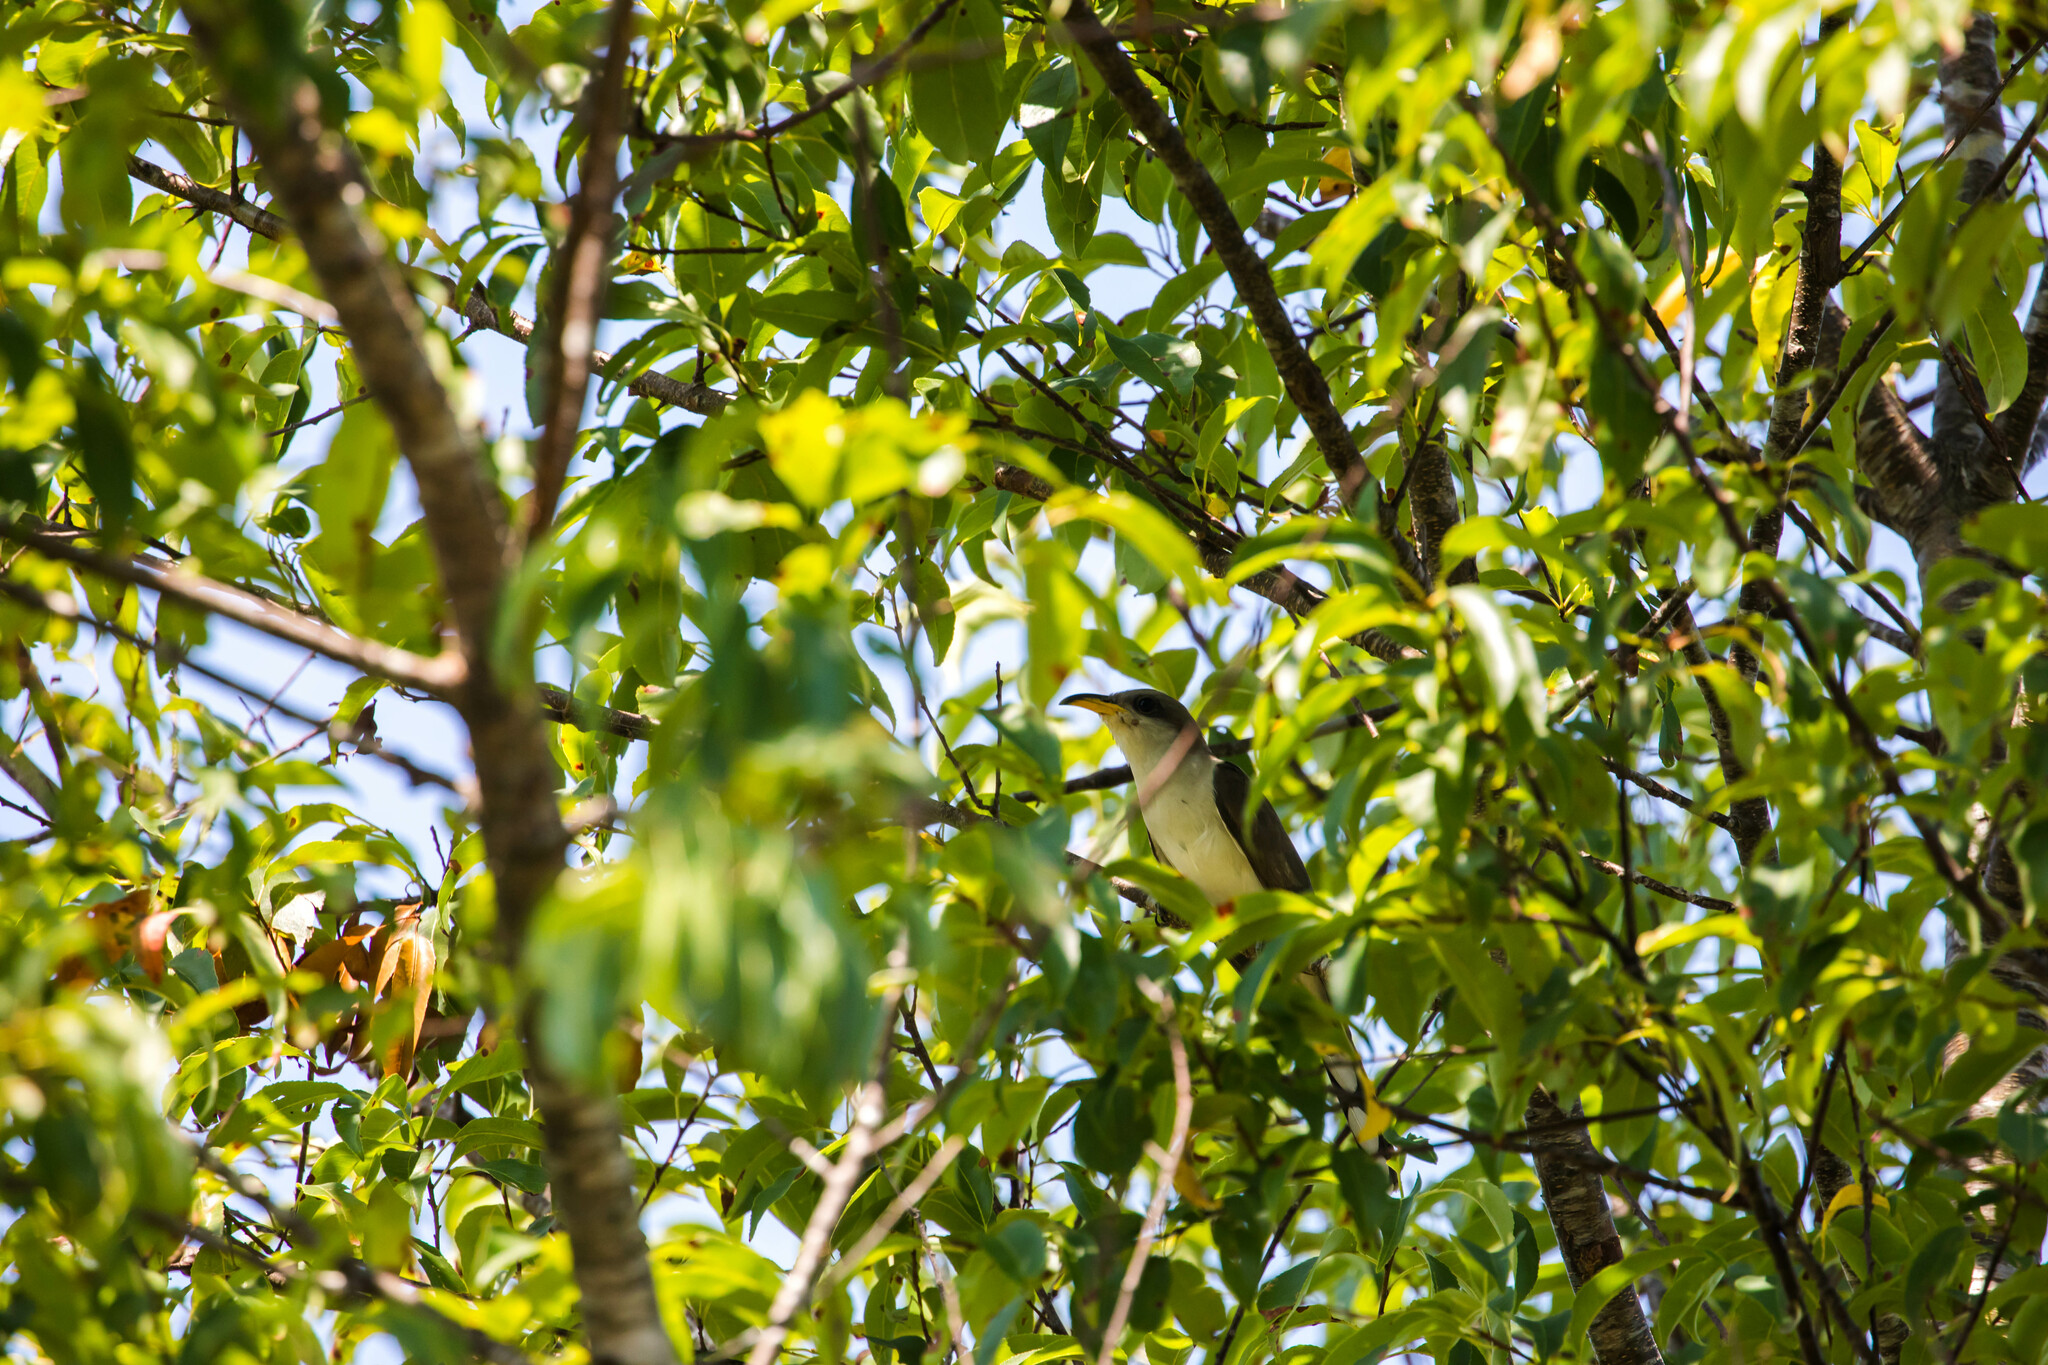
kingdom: Animalia
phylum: Chordata
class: Aves
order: Cuculiformes
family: Cuculidae
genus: Coccyzus
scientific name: Coccyzus americanus
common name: Yellow-billed cuckoo
